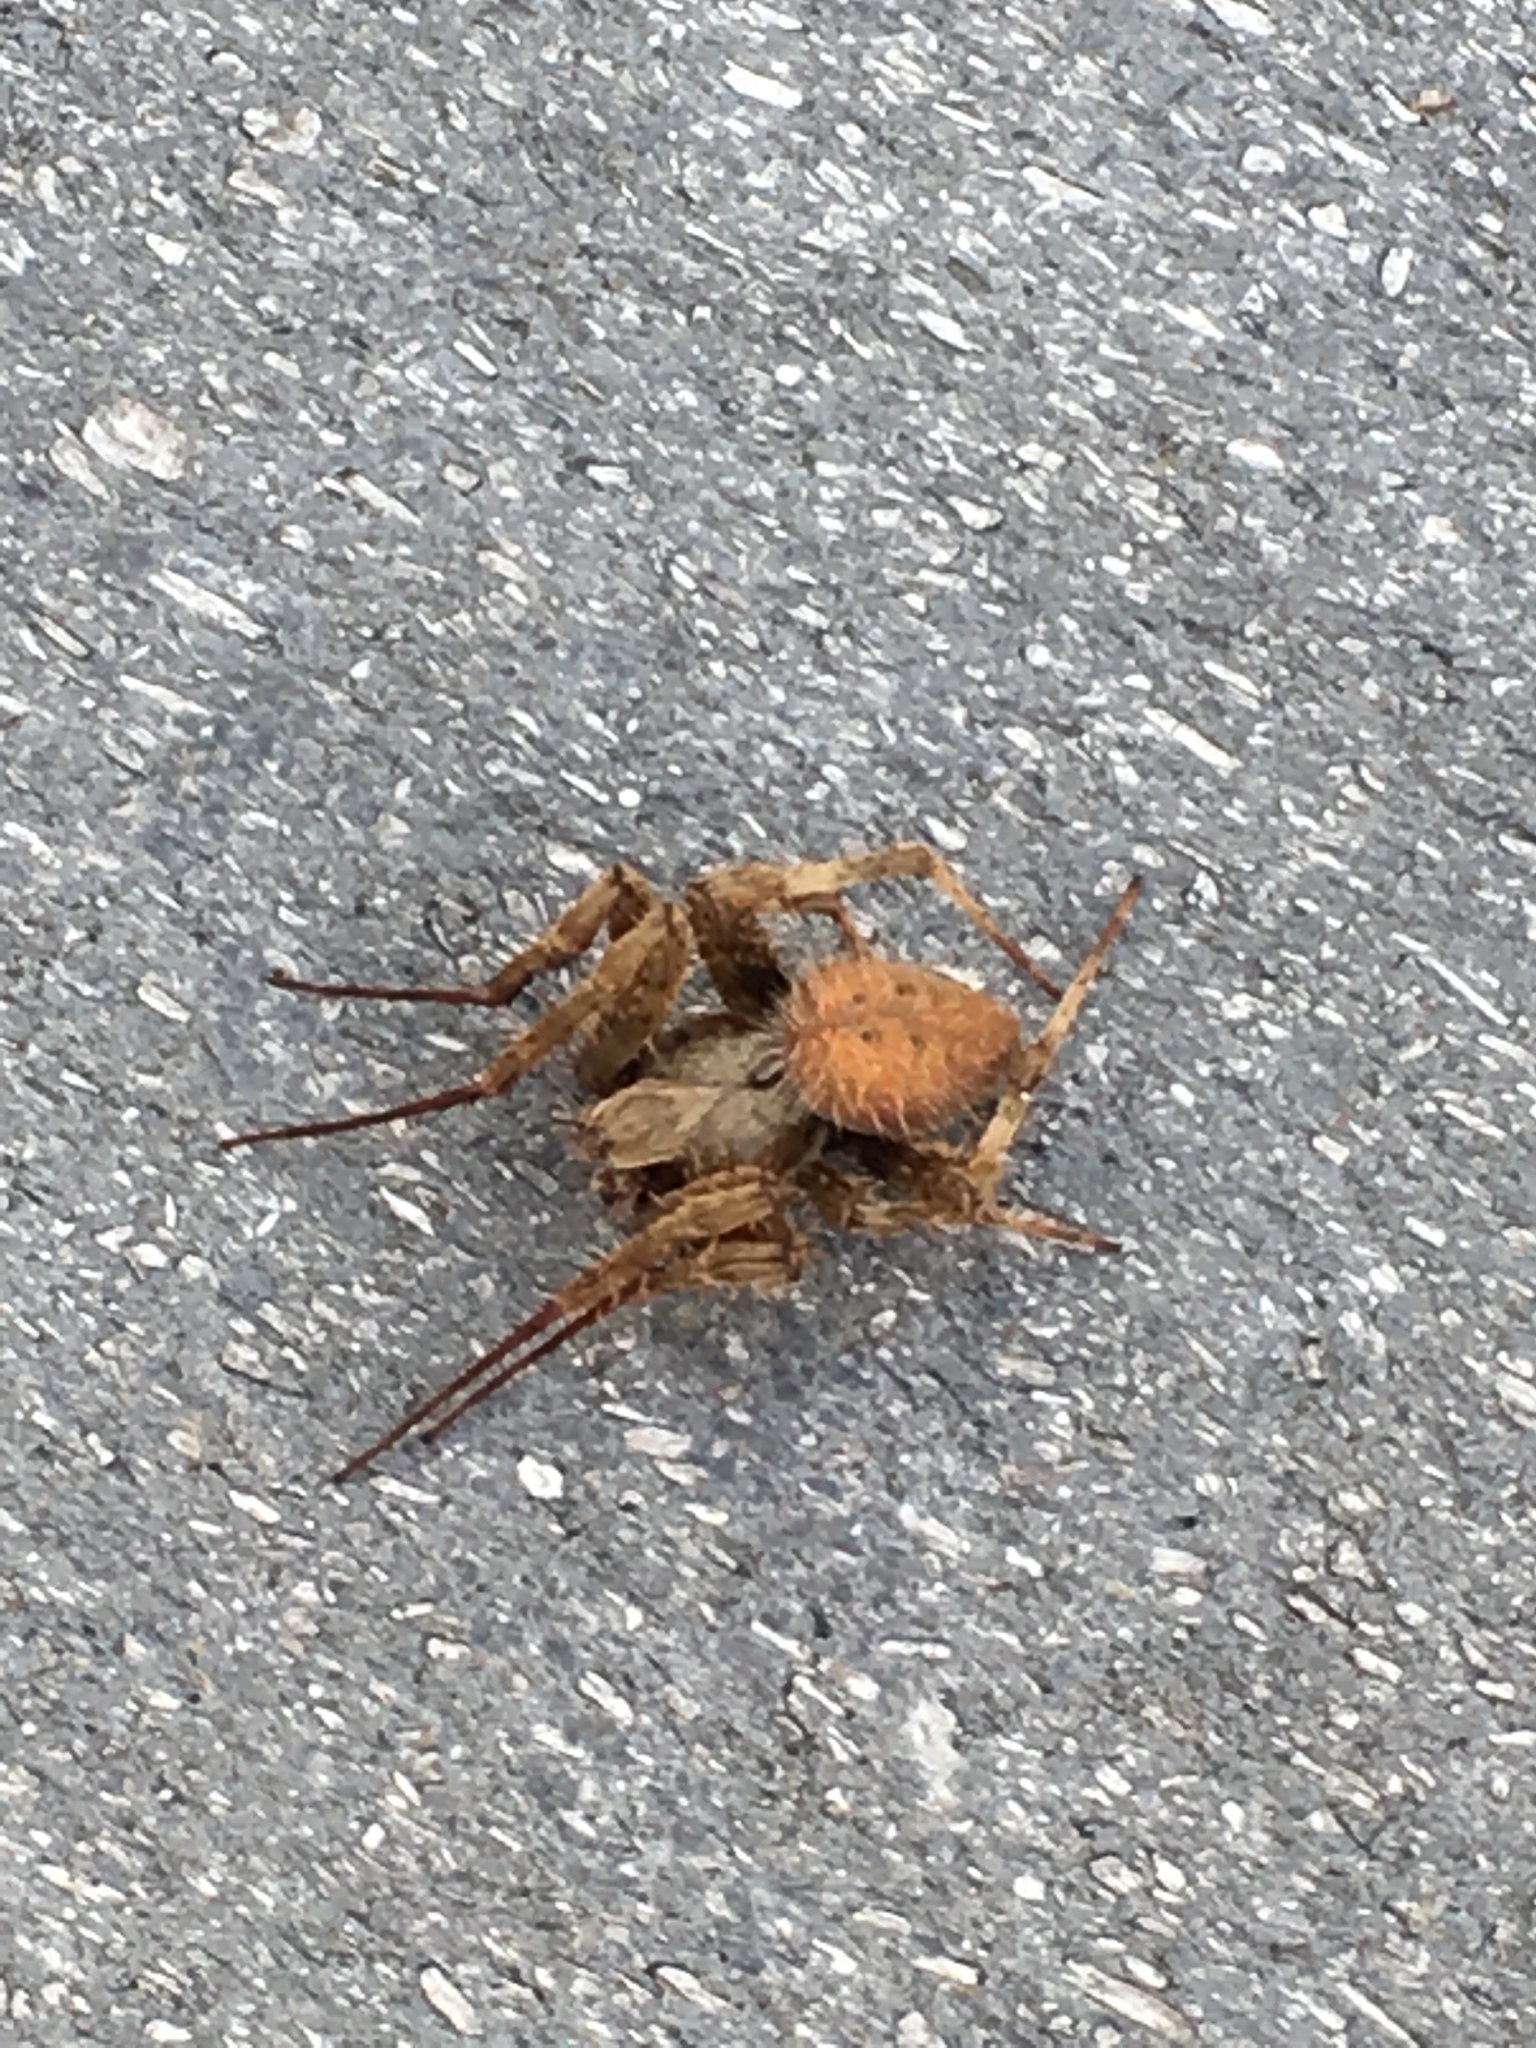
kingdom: Animalia
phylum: Arthropoda
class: Arachnida
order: Araneae
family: Araneidae
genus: Neoscona
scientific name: Neoscona crucifera
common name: Spotted orbweaver
